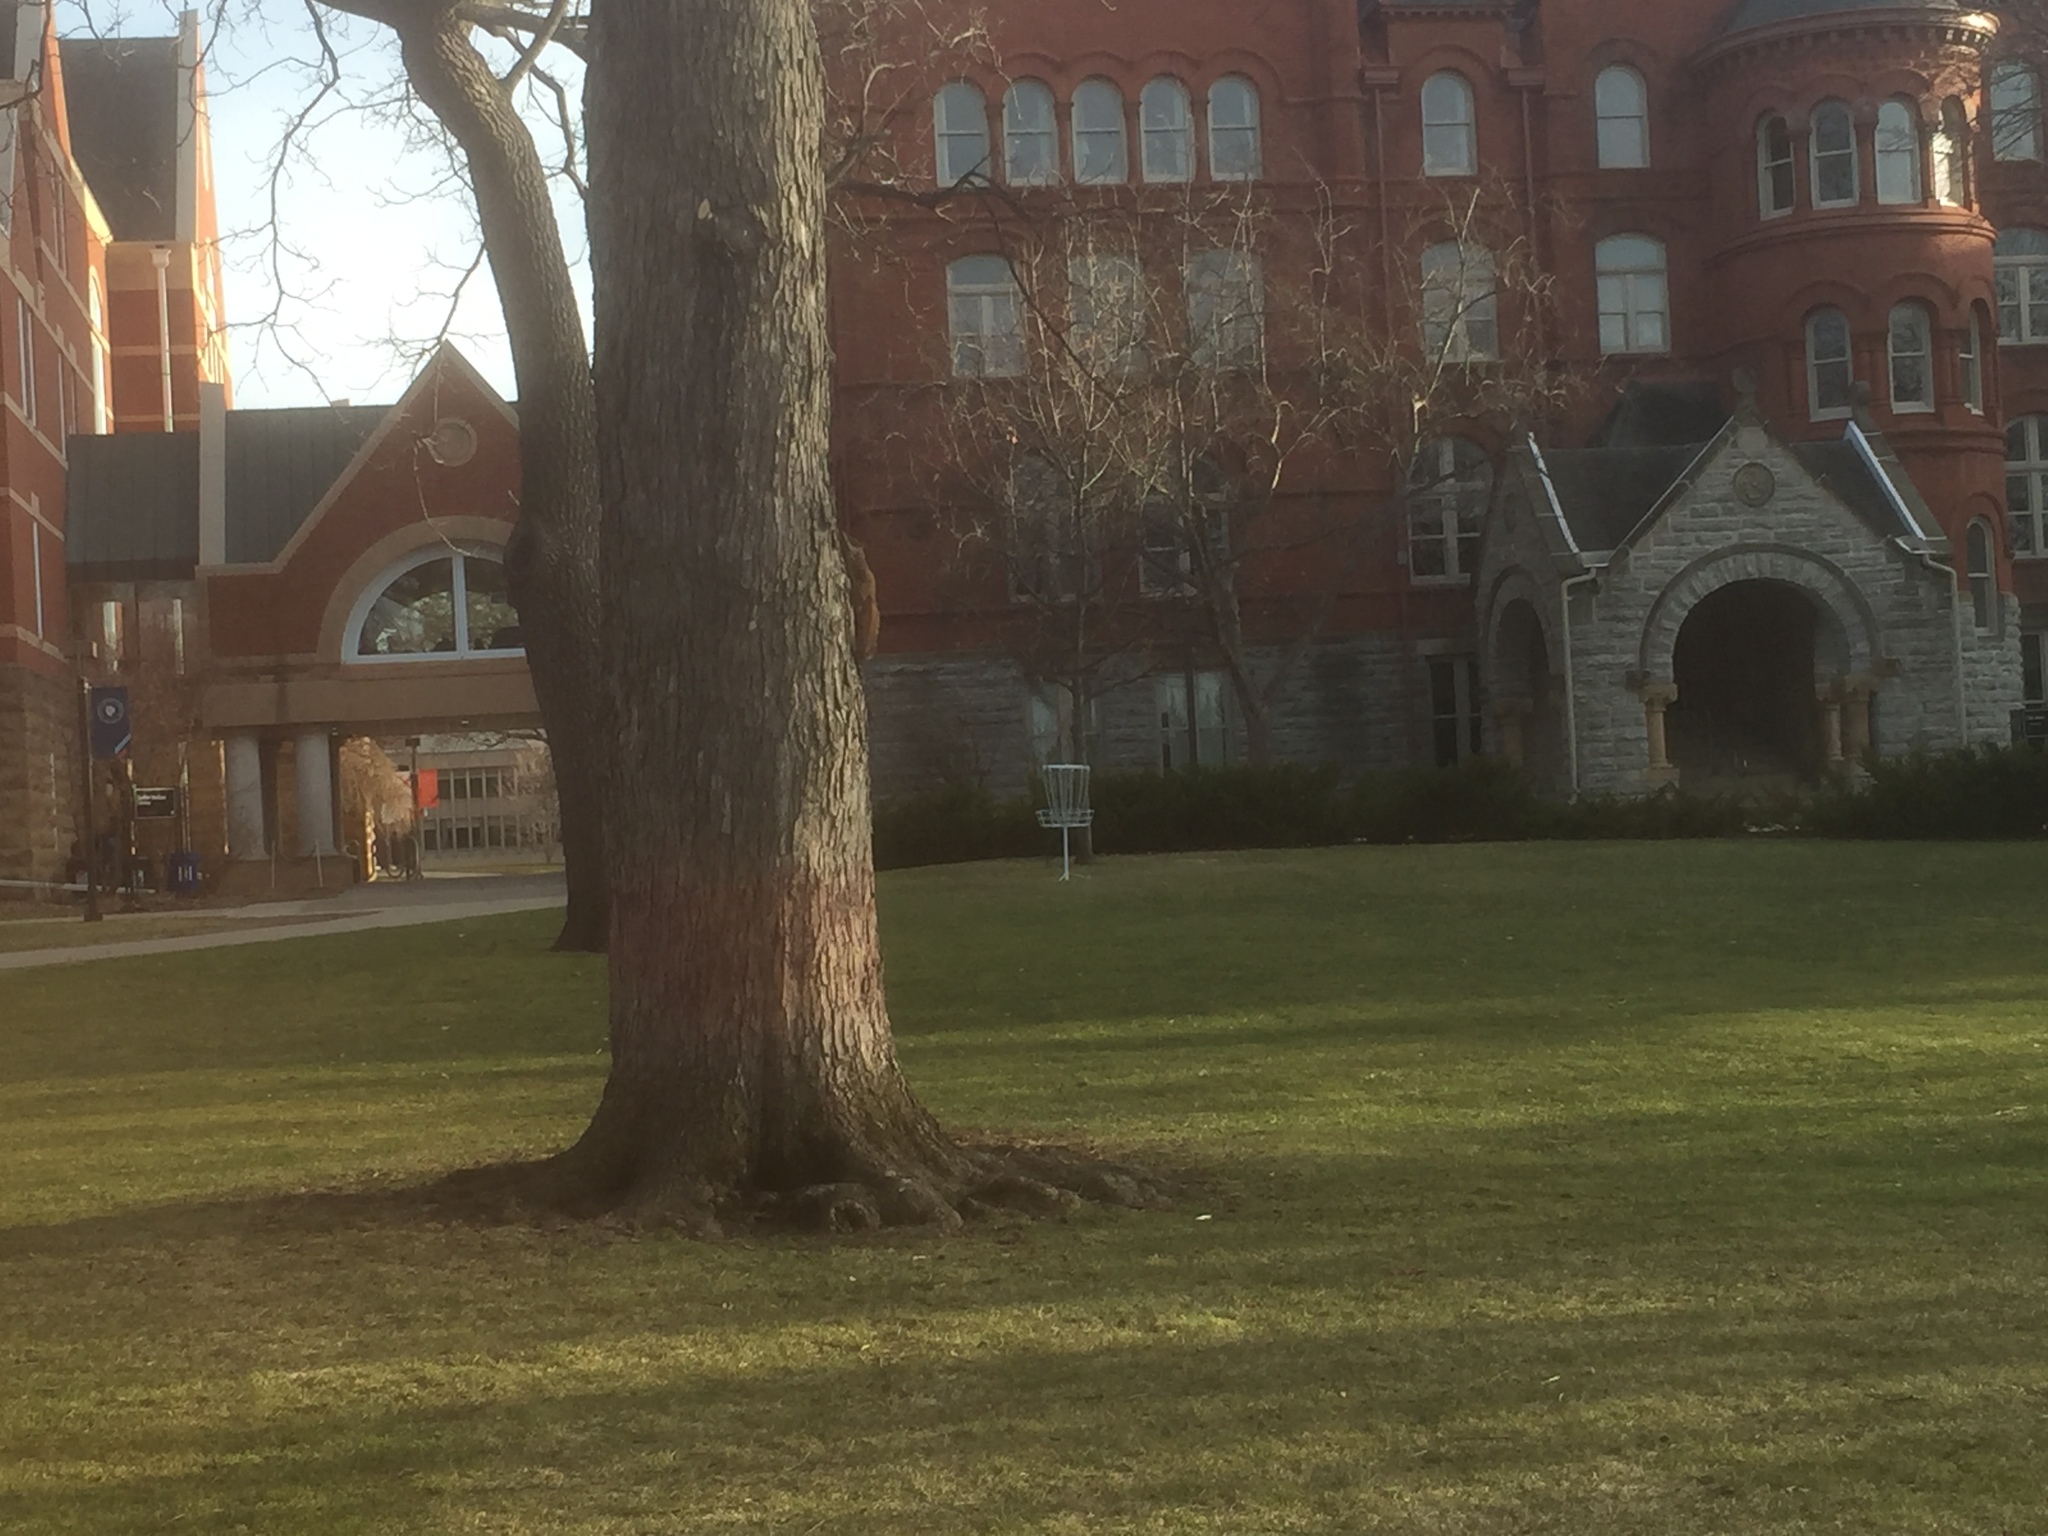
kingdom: Animalia
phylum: Chordata
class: Mammalia
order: Rodentia
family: Sciuridae
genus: Sciurus
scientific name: Sciurus carolinensis
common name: Eastern gray squirrel
